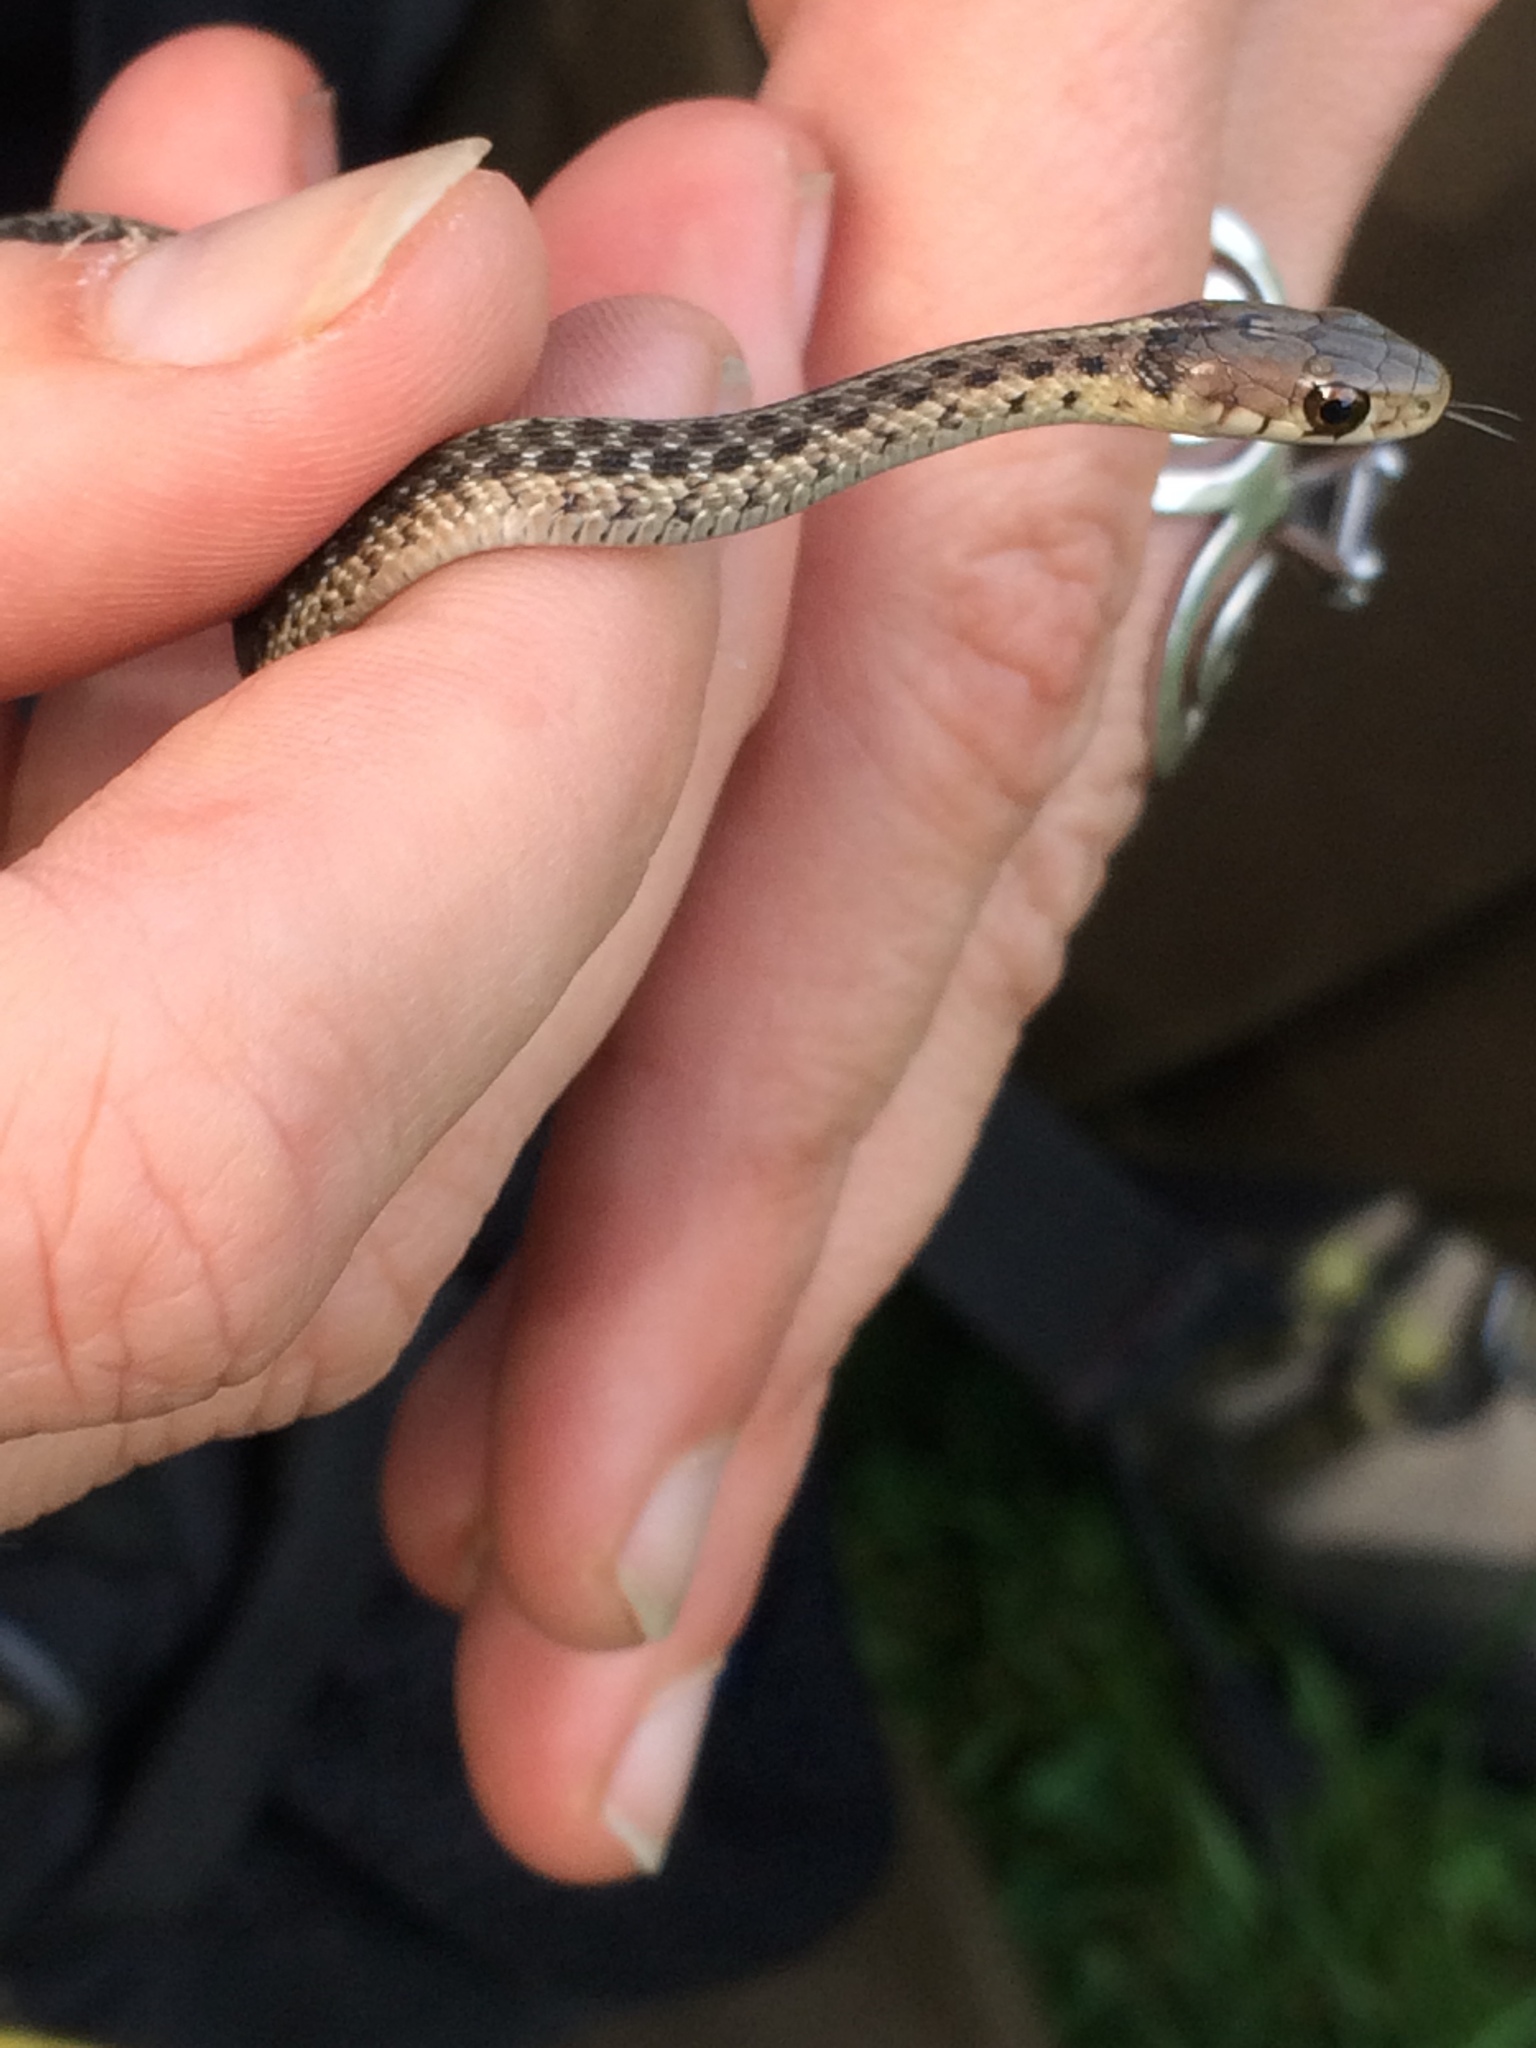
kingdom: Animalia
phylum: Chordata
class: Squamata
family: Colubridae
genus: Thamnophis
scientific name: Thamnophis sirtalis
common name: Common garter snake
